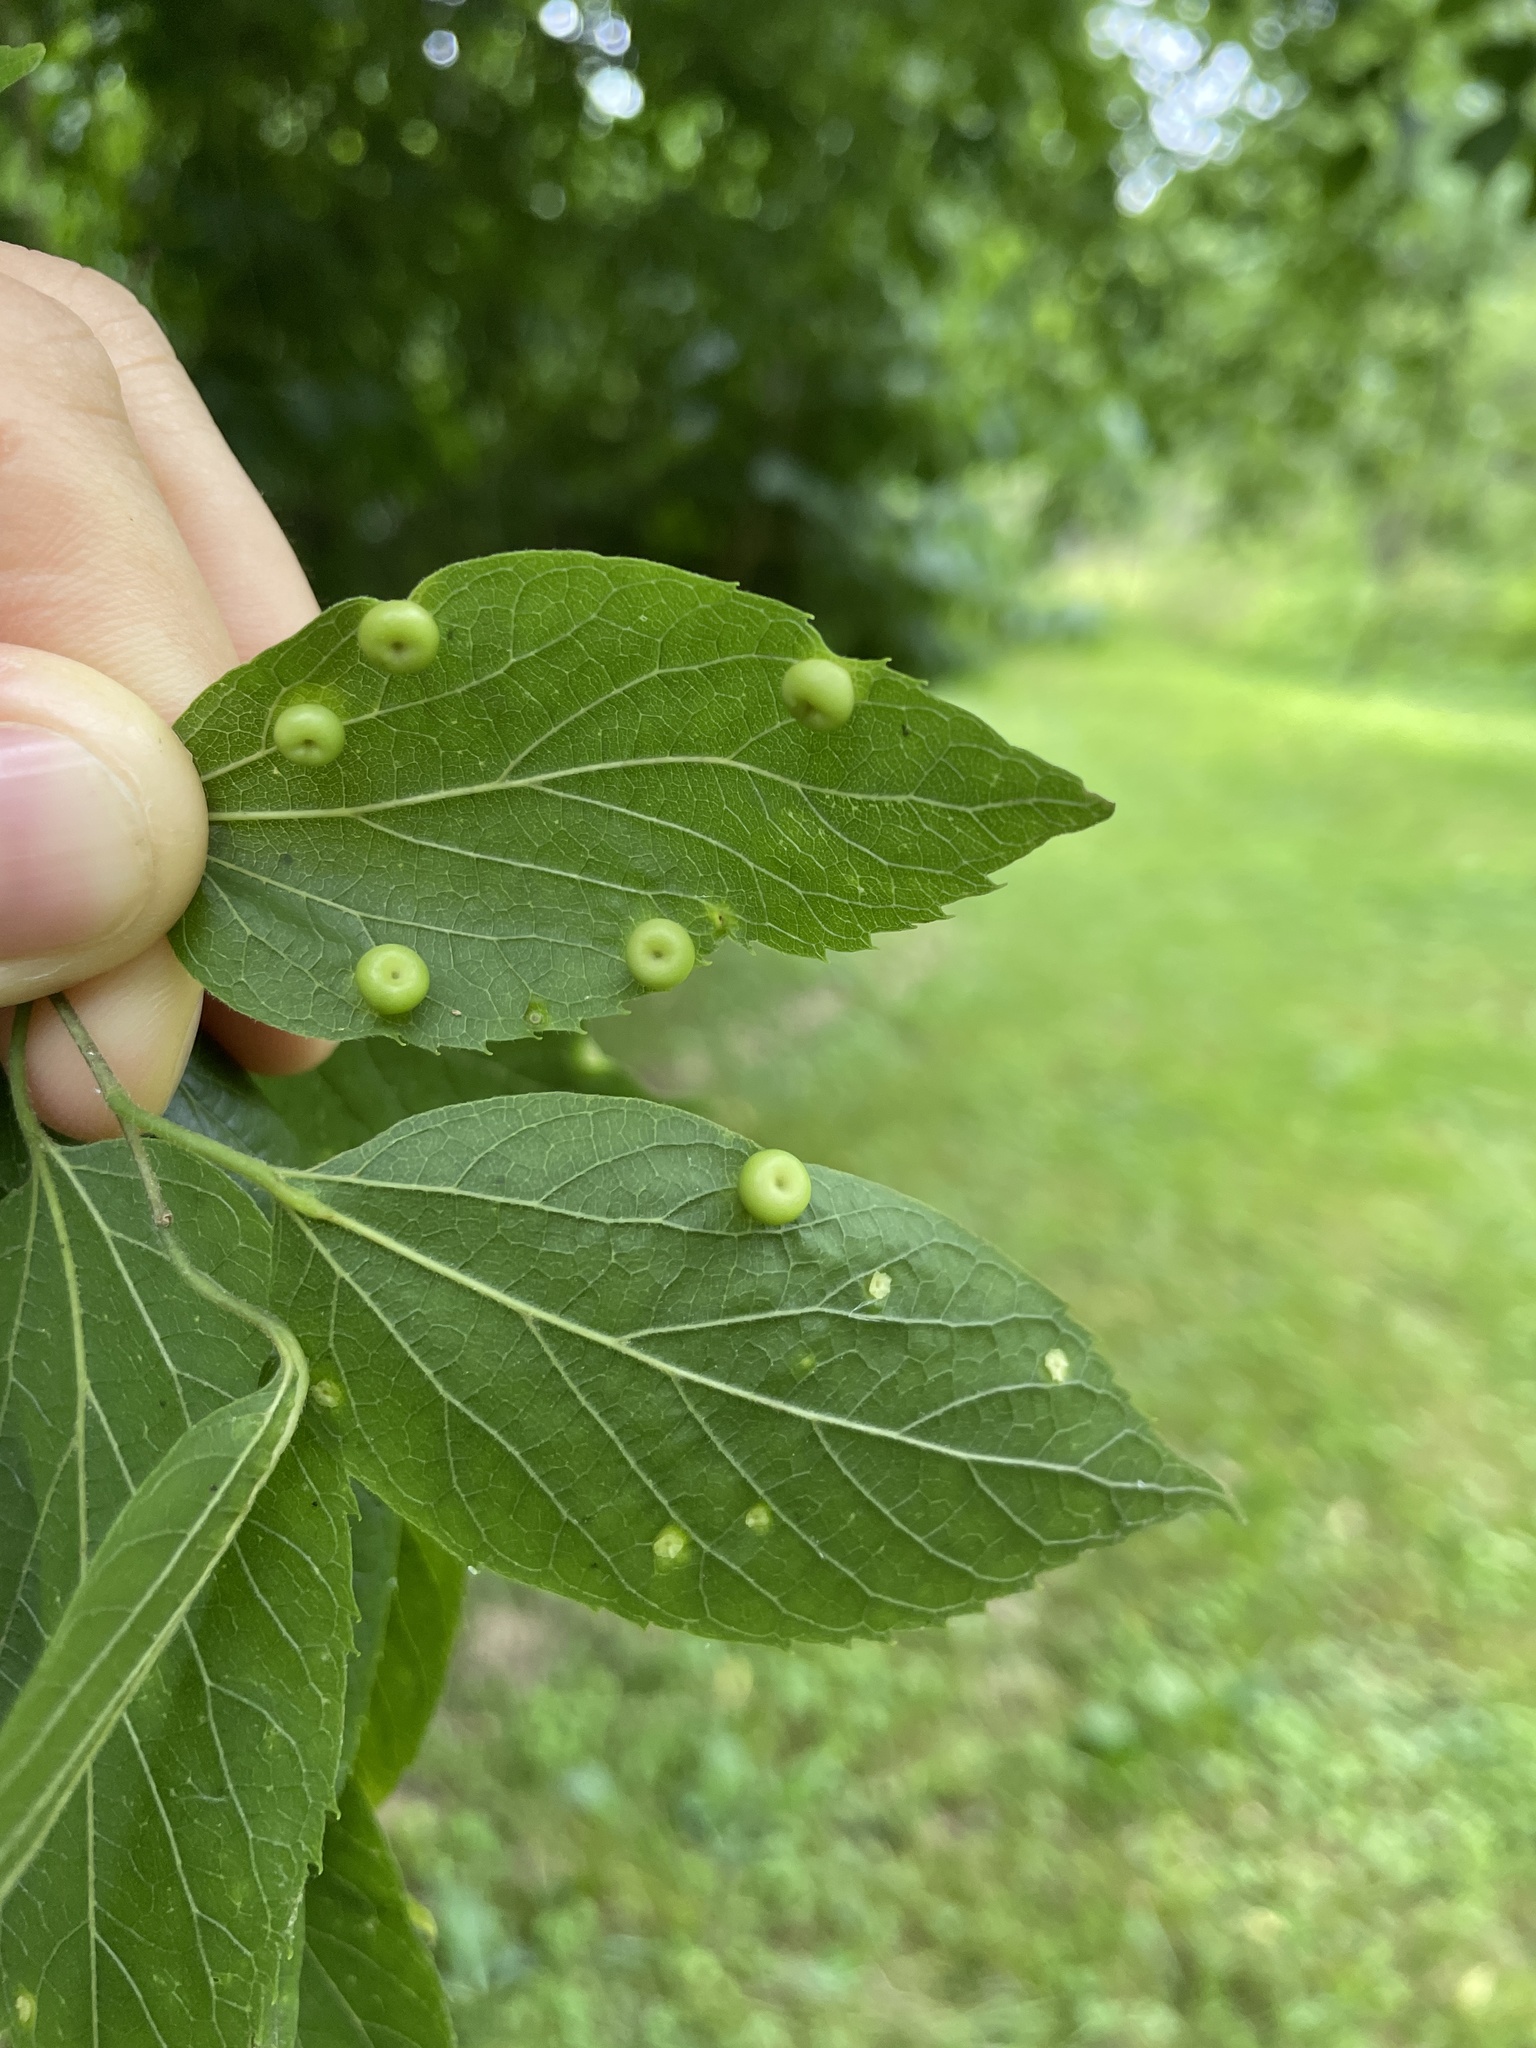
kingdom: Animalia
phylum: Arthropoda
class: Insecta
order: Hemiptera
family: Aphalaridae
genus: Pachypsylla
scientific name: Pachypsylla celtidismamma
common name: Hackberry nipplegall psyllid
